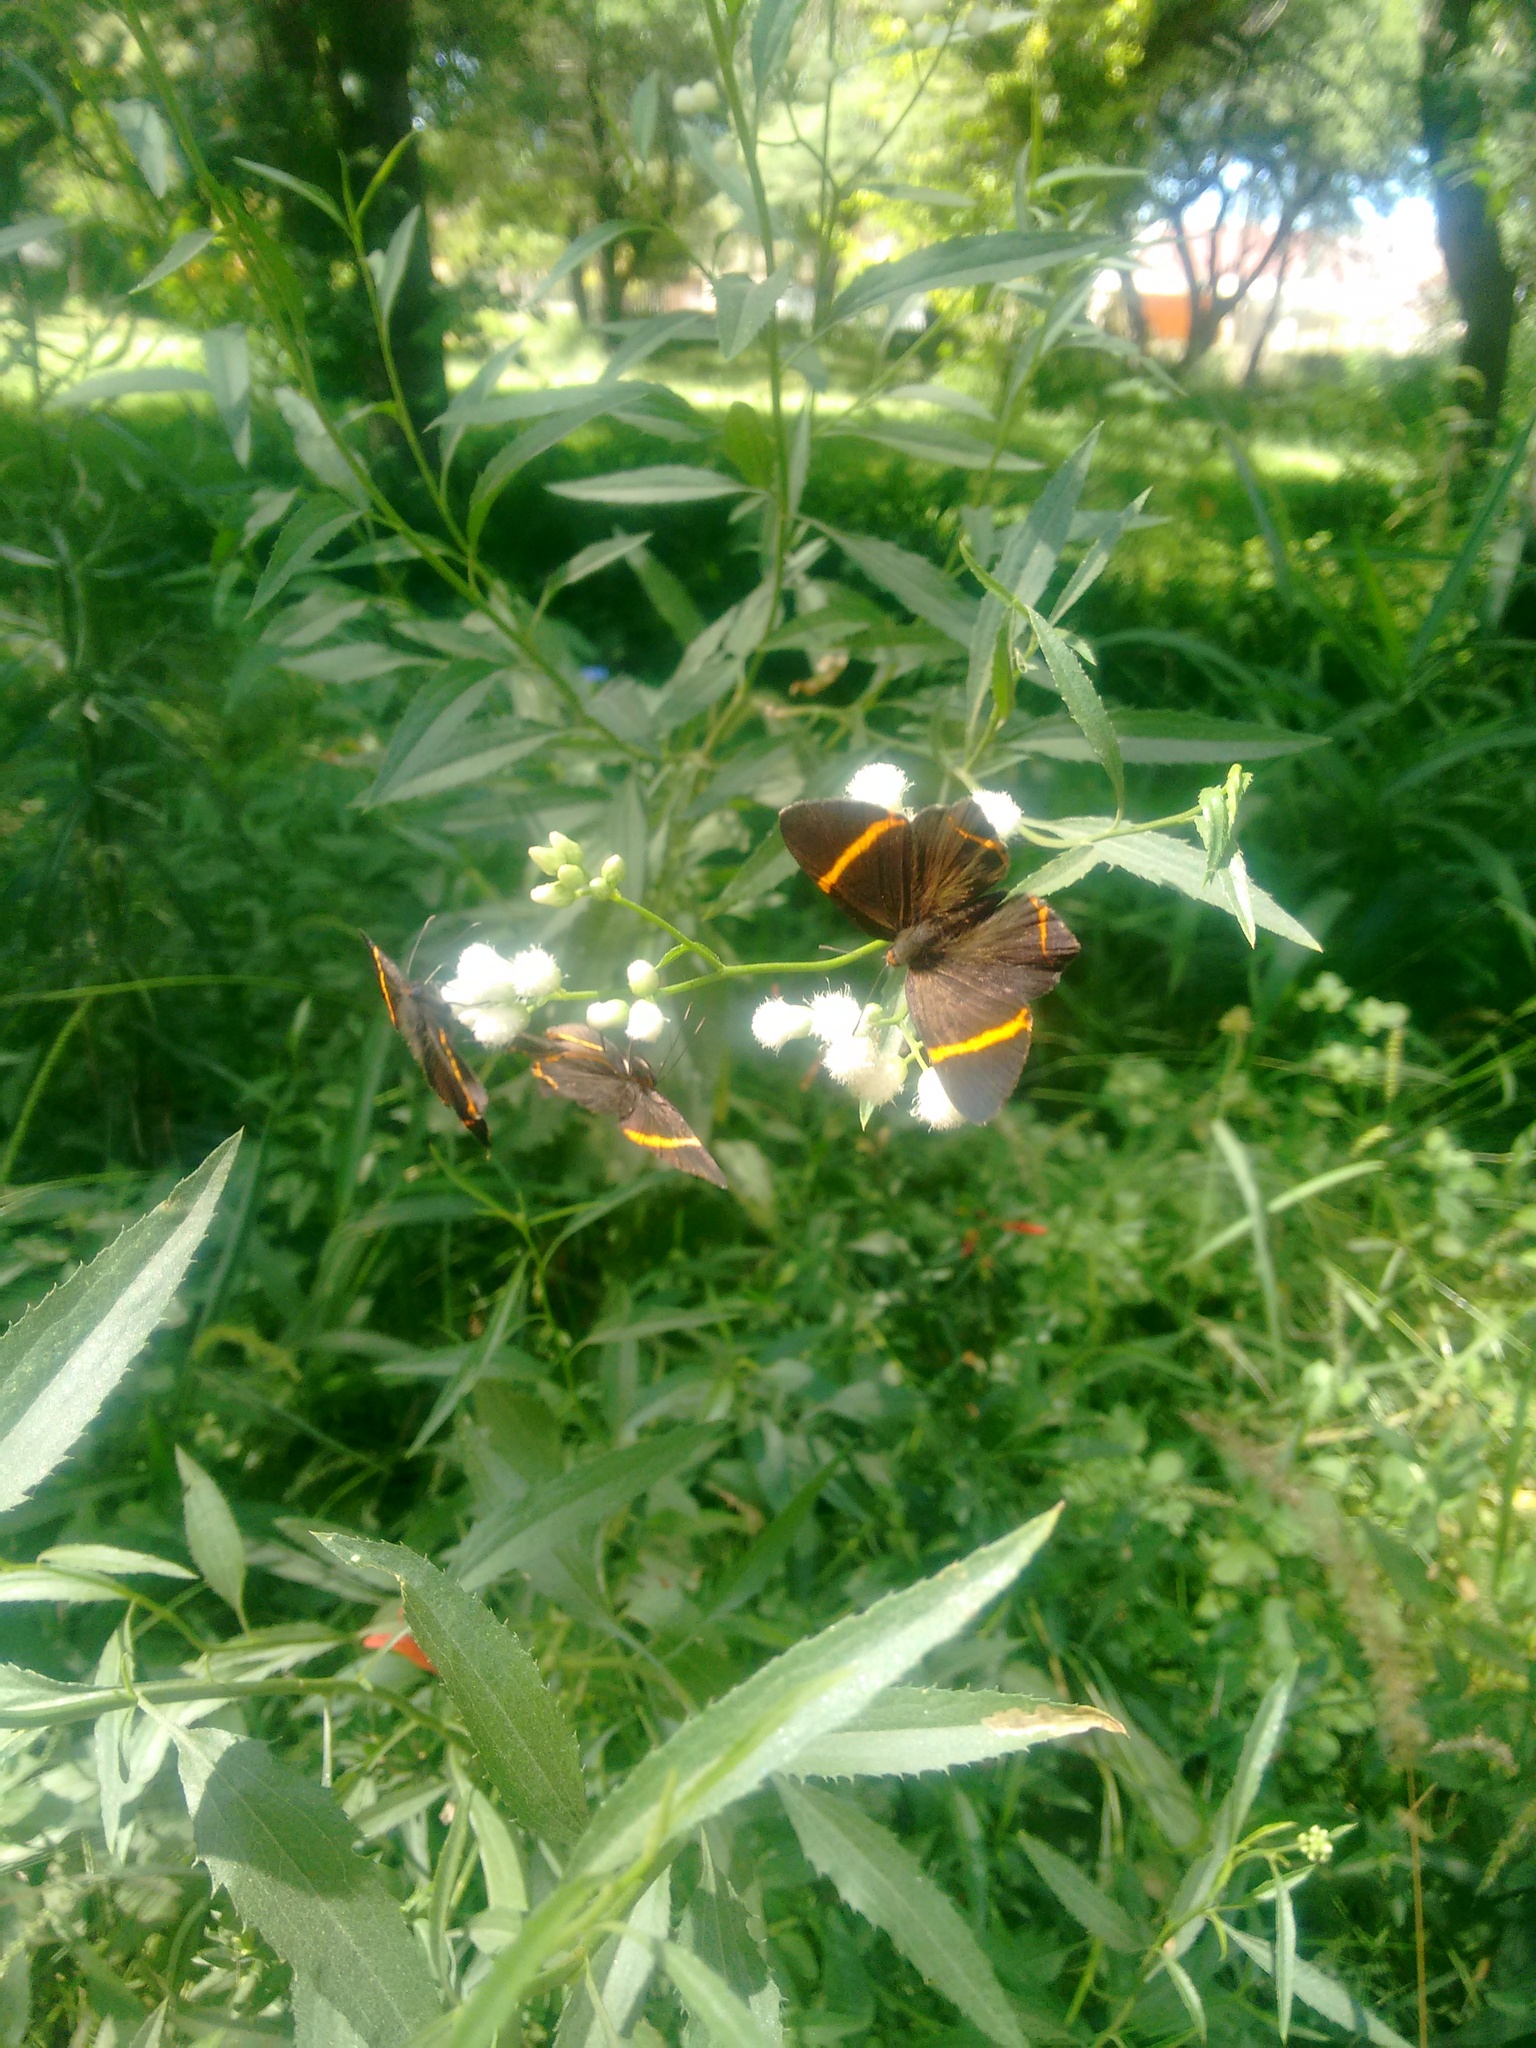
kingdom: Animalia
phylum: Arthropoda
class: Insecta
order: Lepidoptera
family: Riodinidae
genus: Riodina
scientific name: Riodina lysippoides
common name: Little dancer metalmark
